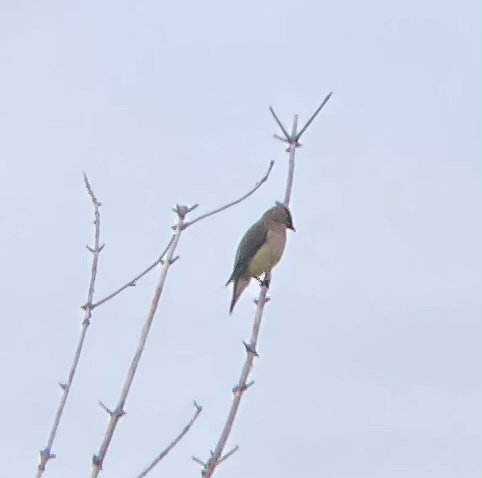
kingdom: Animalia
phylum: Chordata
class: Aves
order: Passeriformes
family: Bombycillidae
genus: Bombycilla
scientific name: Bombycilla cedrorum
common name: Cedar waxwing
